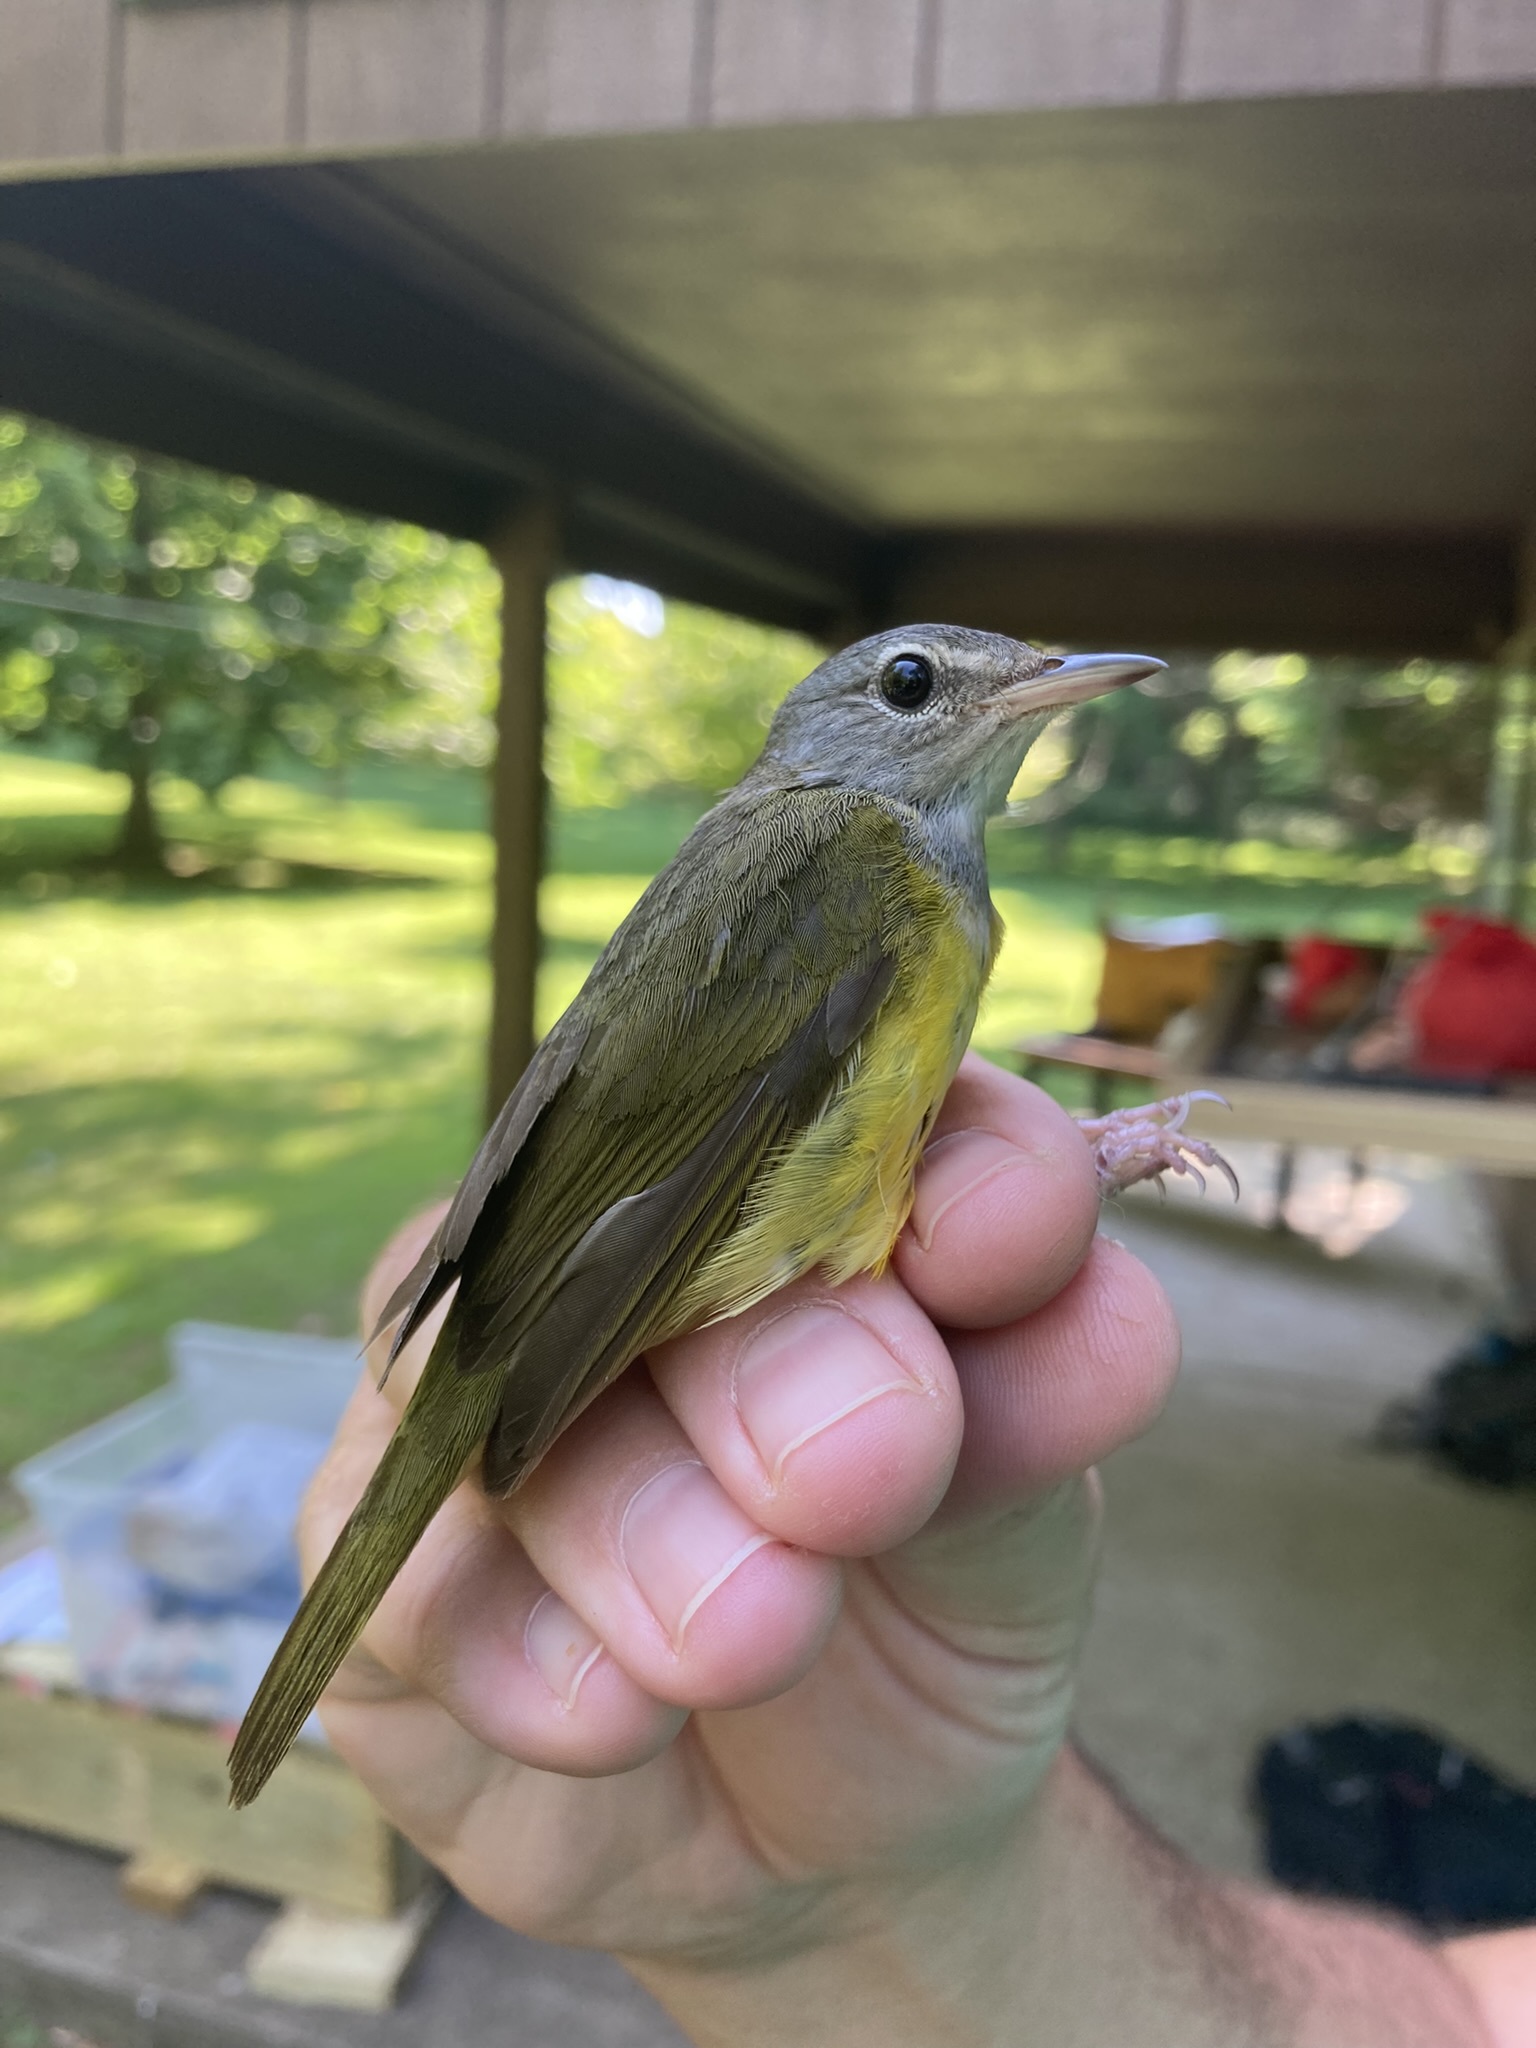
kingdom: Animalia
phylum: Chordata
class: Aves
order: Passeriformes
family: Parulidae
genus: Geothlypis
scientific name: Geothlypis philadelphia
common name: Mourning warbler
